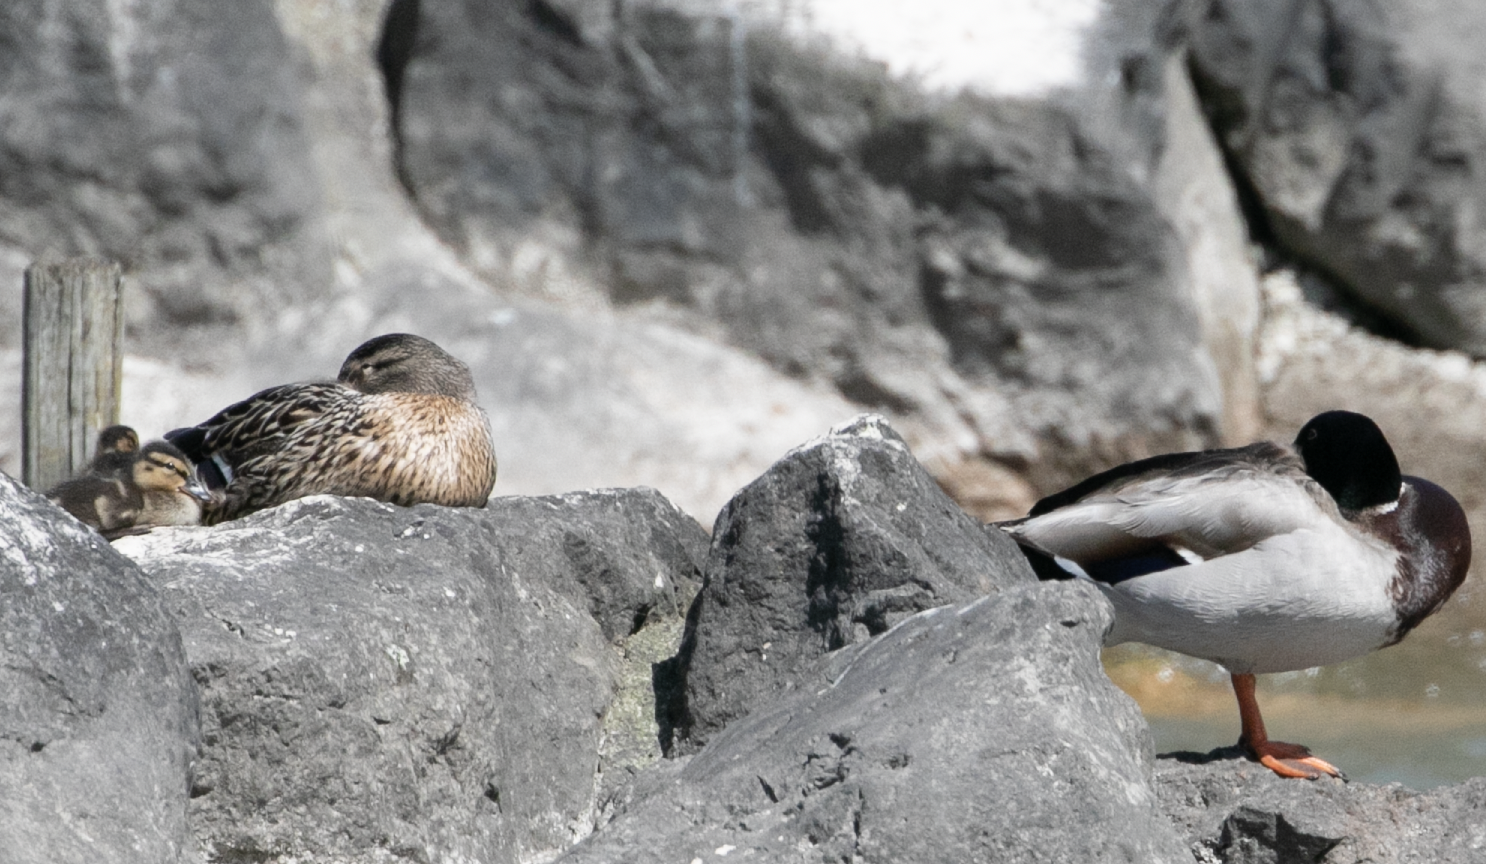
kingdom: Animalia
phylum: Chordata
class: Aves
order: Anseriformes
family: Anatidae
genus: Anas
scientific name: Anas platyrhynchos
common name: Mallard
